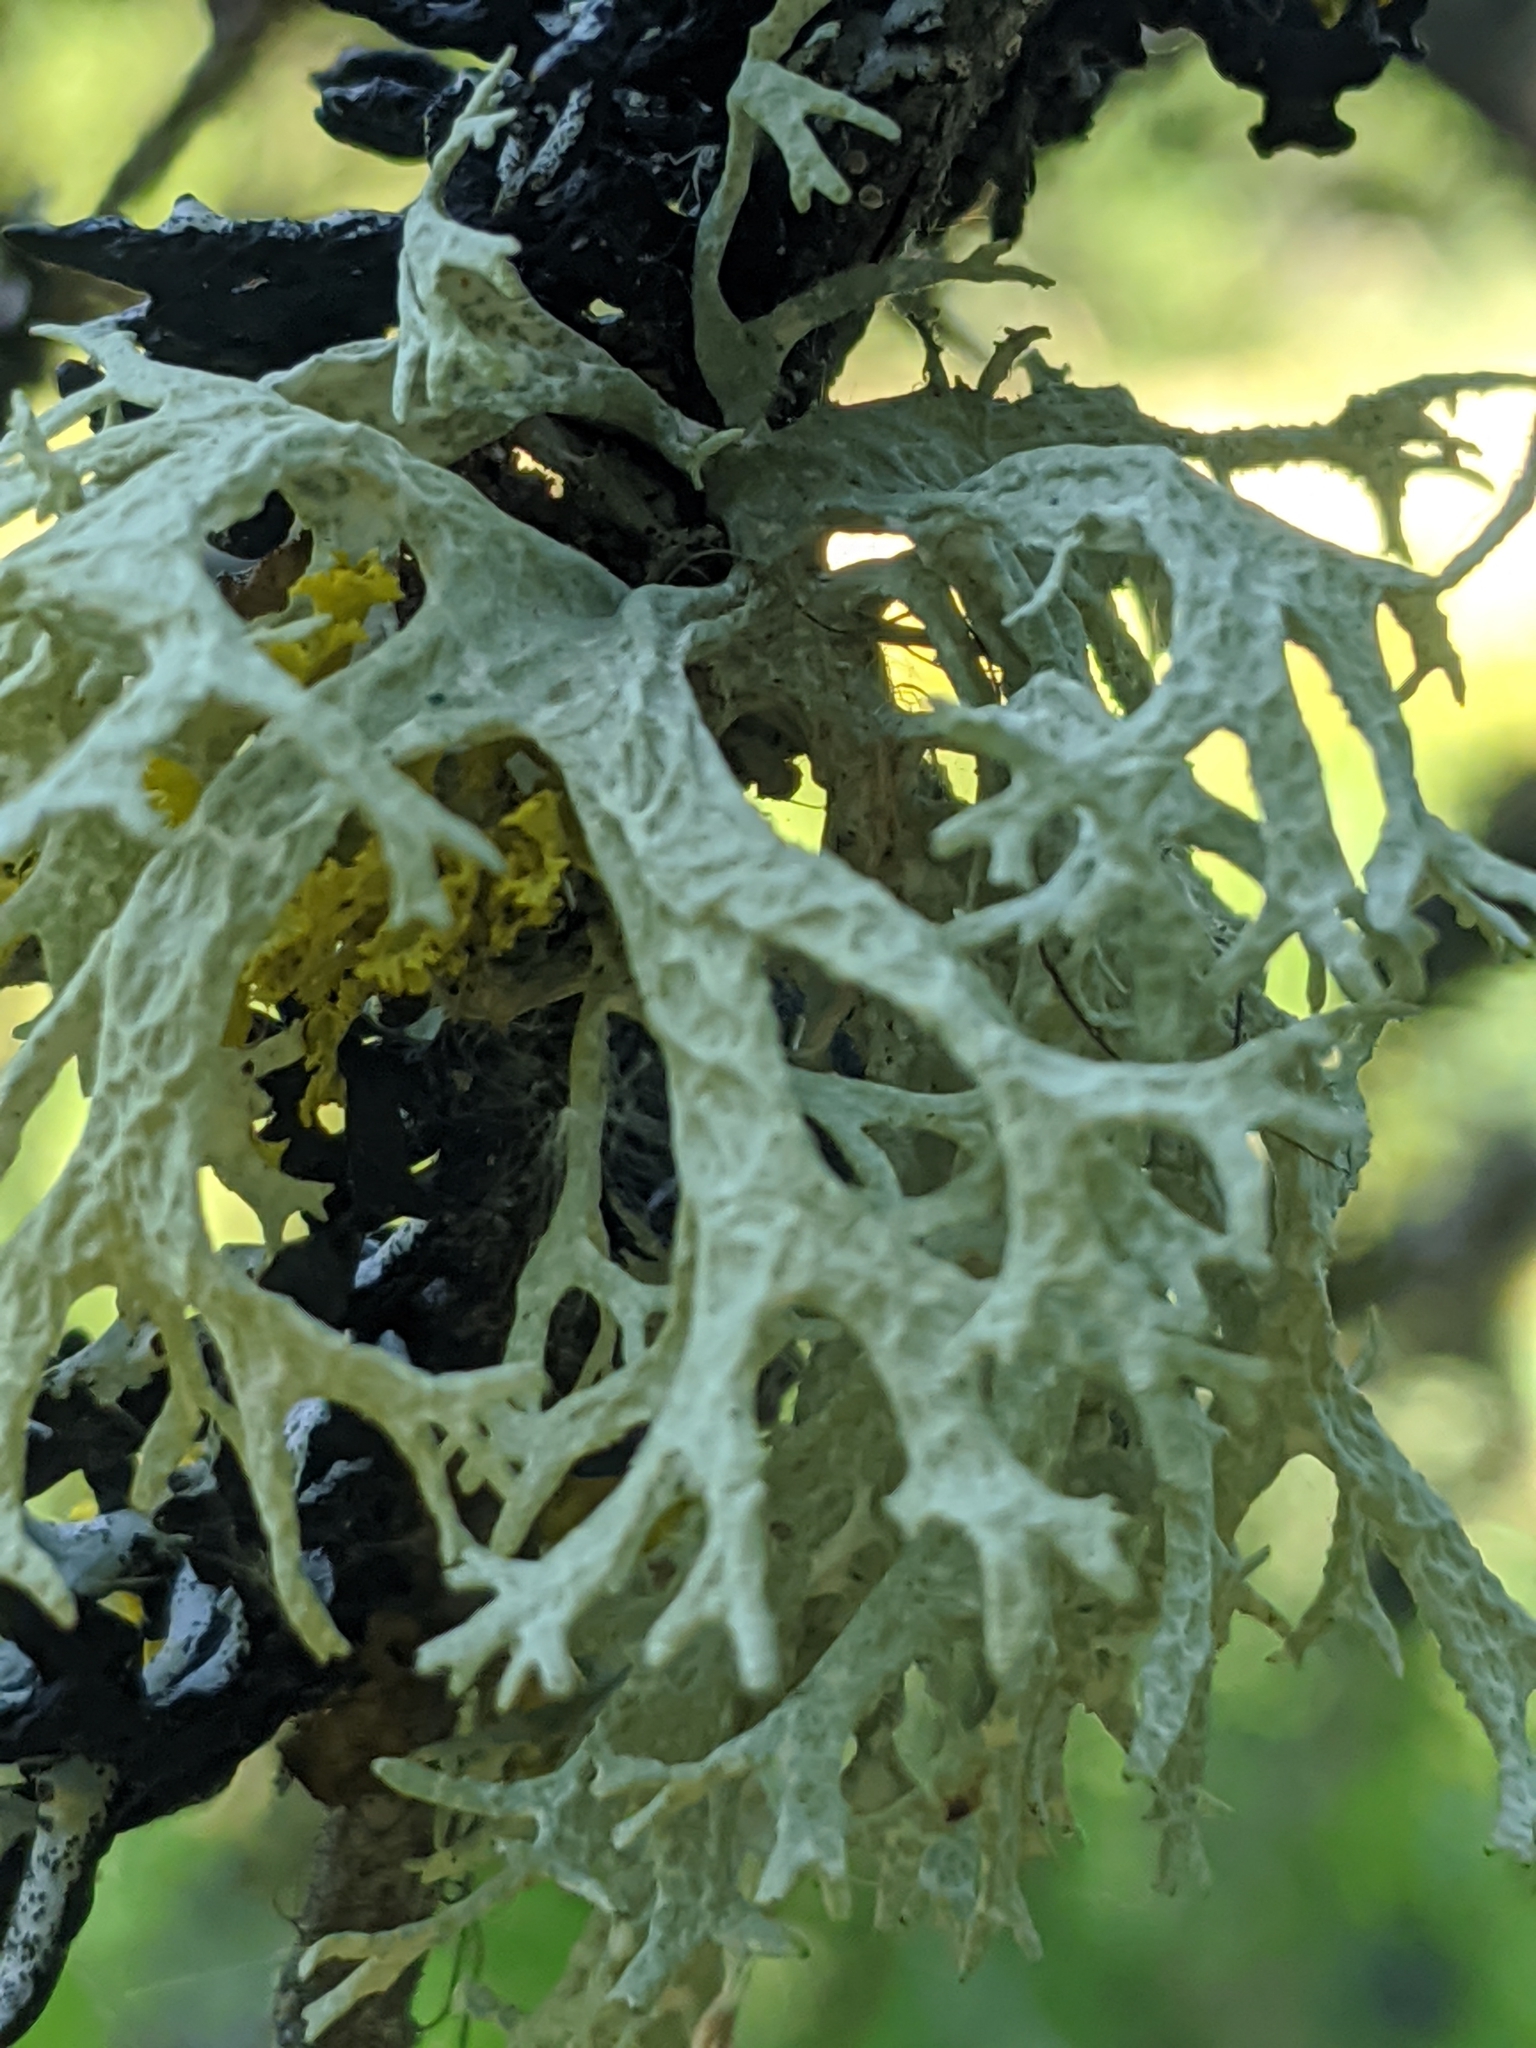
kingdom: Fungi
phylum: Ascomycota
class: Lecanoromycetes
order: Lecanorales
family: Parmeliaceae
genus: Evernia
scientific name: Evernia prunastri
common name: Oak moss
